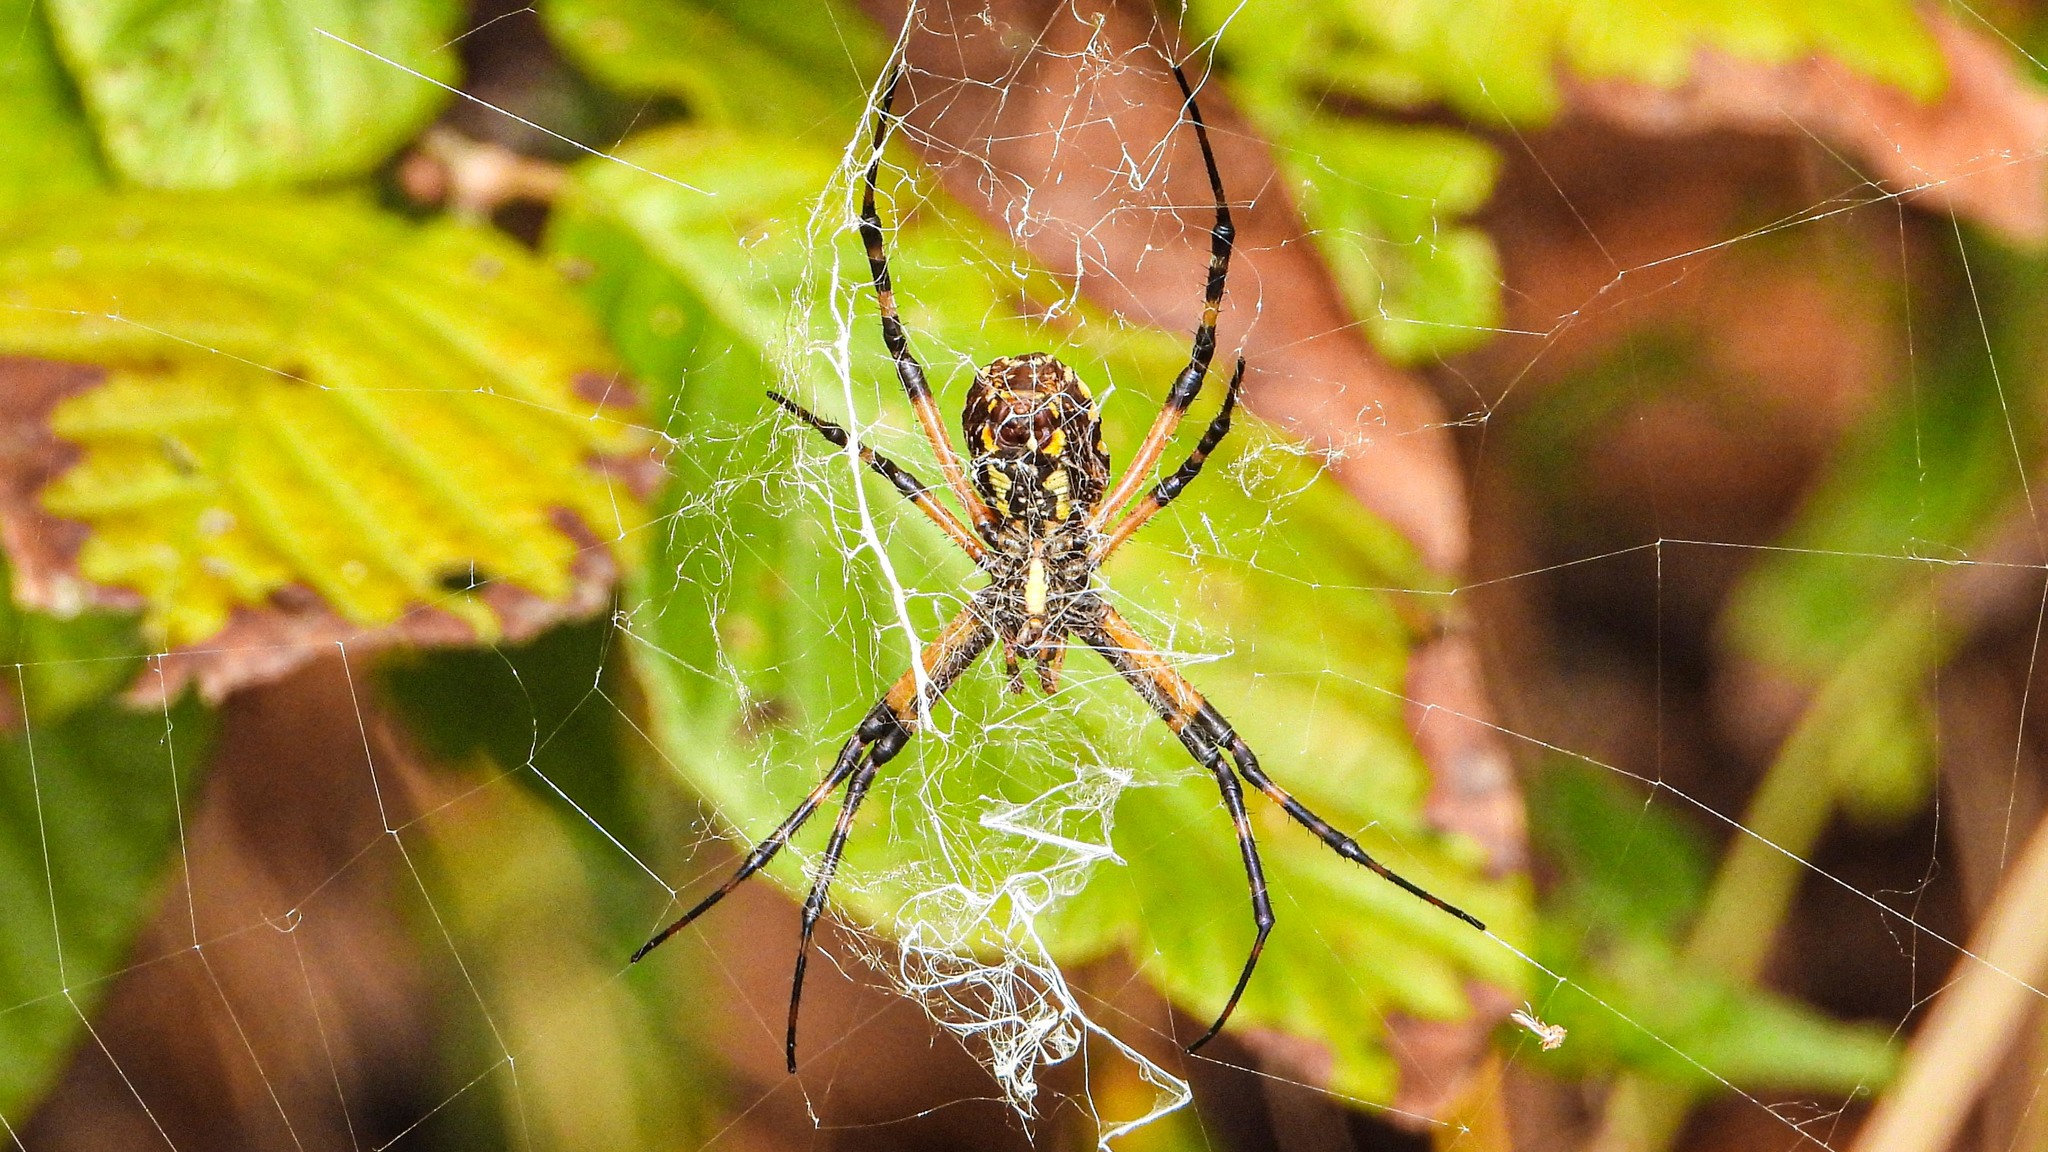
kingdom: Animalia
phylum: Arthropoda
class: Arachnida
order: Araneae
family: Araneidae
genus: Argiope
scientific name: Argiope aurantia
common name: Orb weavers
